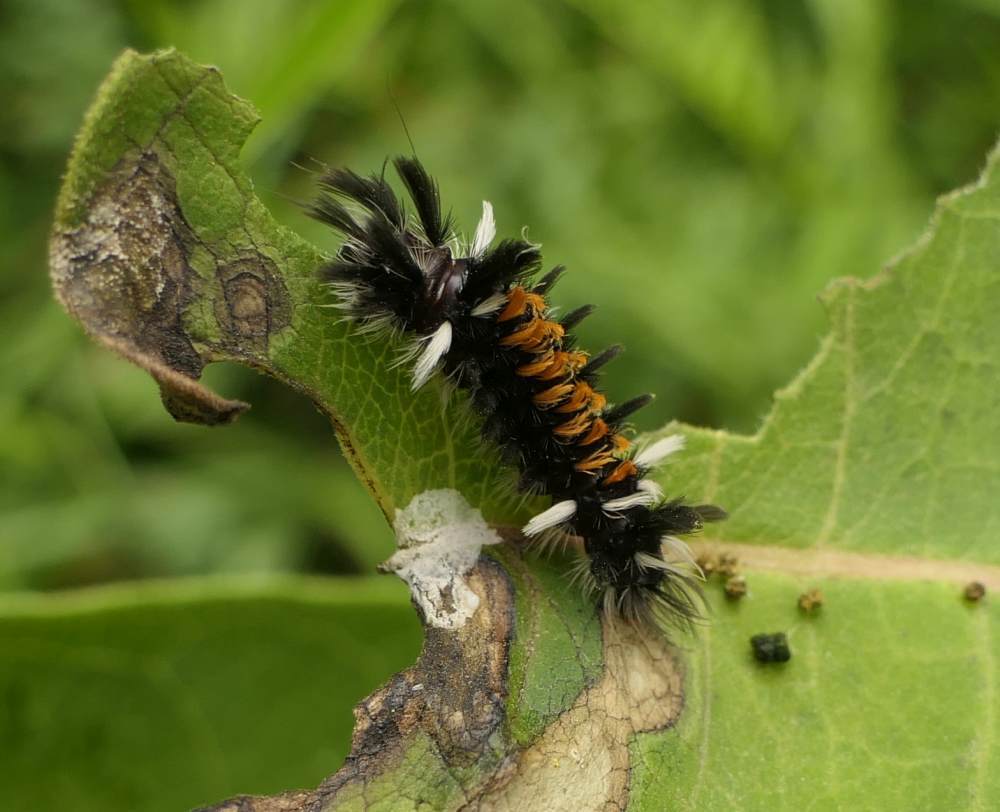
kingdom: Animalia
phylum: Arthropoda
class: Insecta
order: Lepidoptera
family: Erebidae
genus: Euchaetes
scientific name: Euchaetes egle
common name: Milkweed tussock moth
